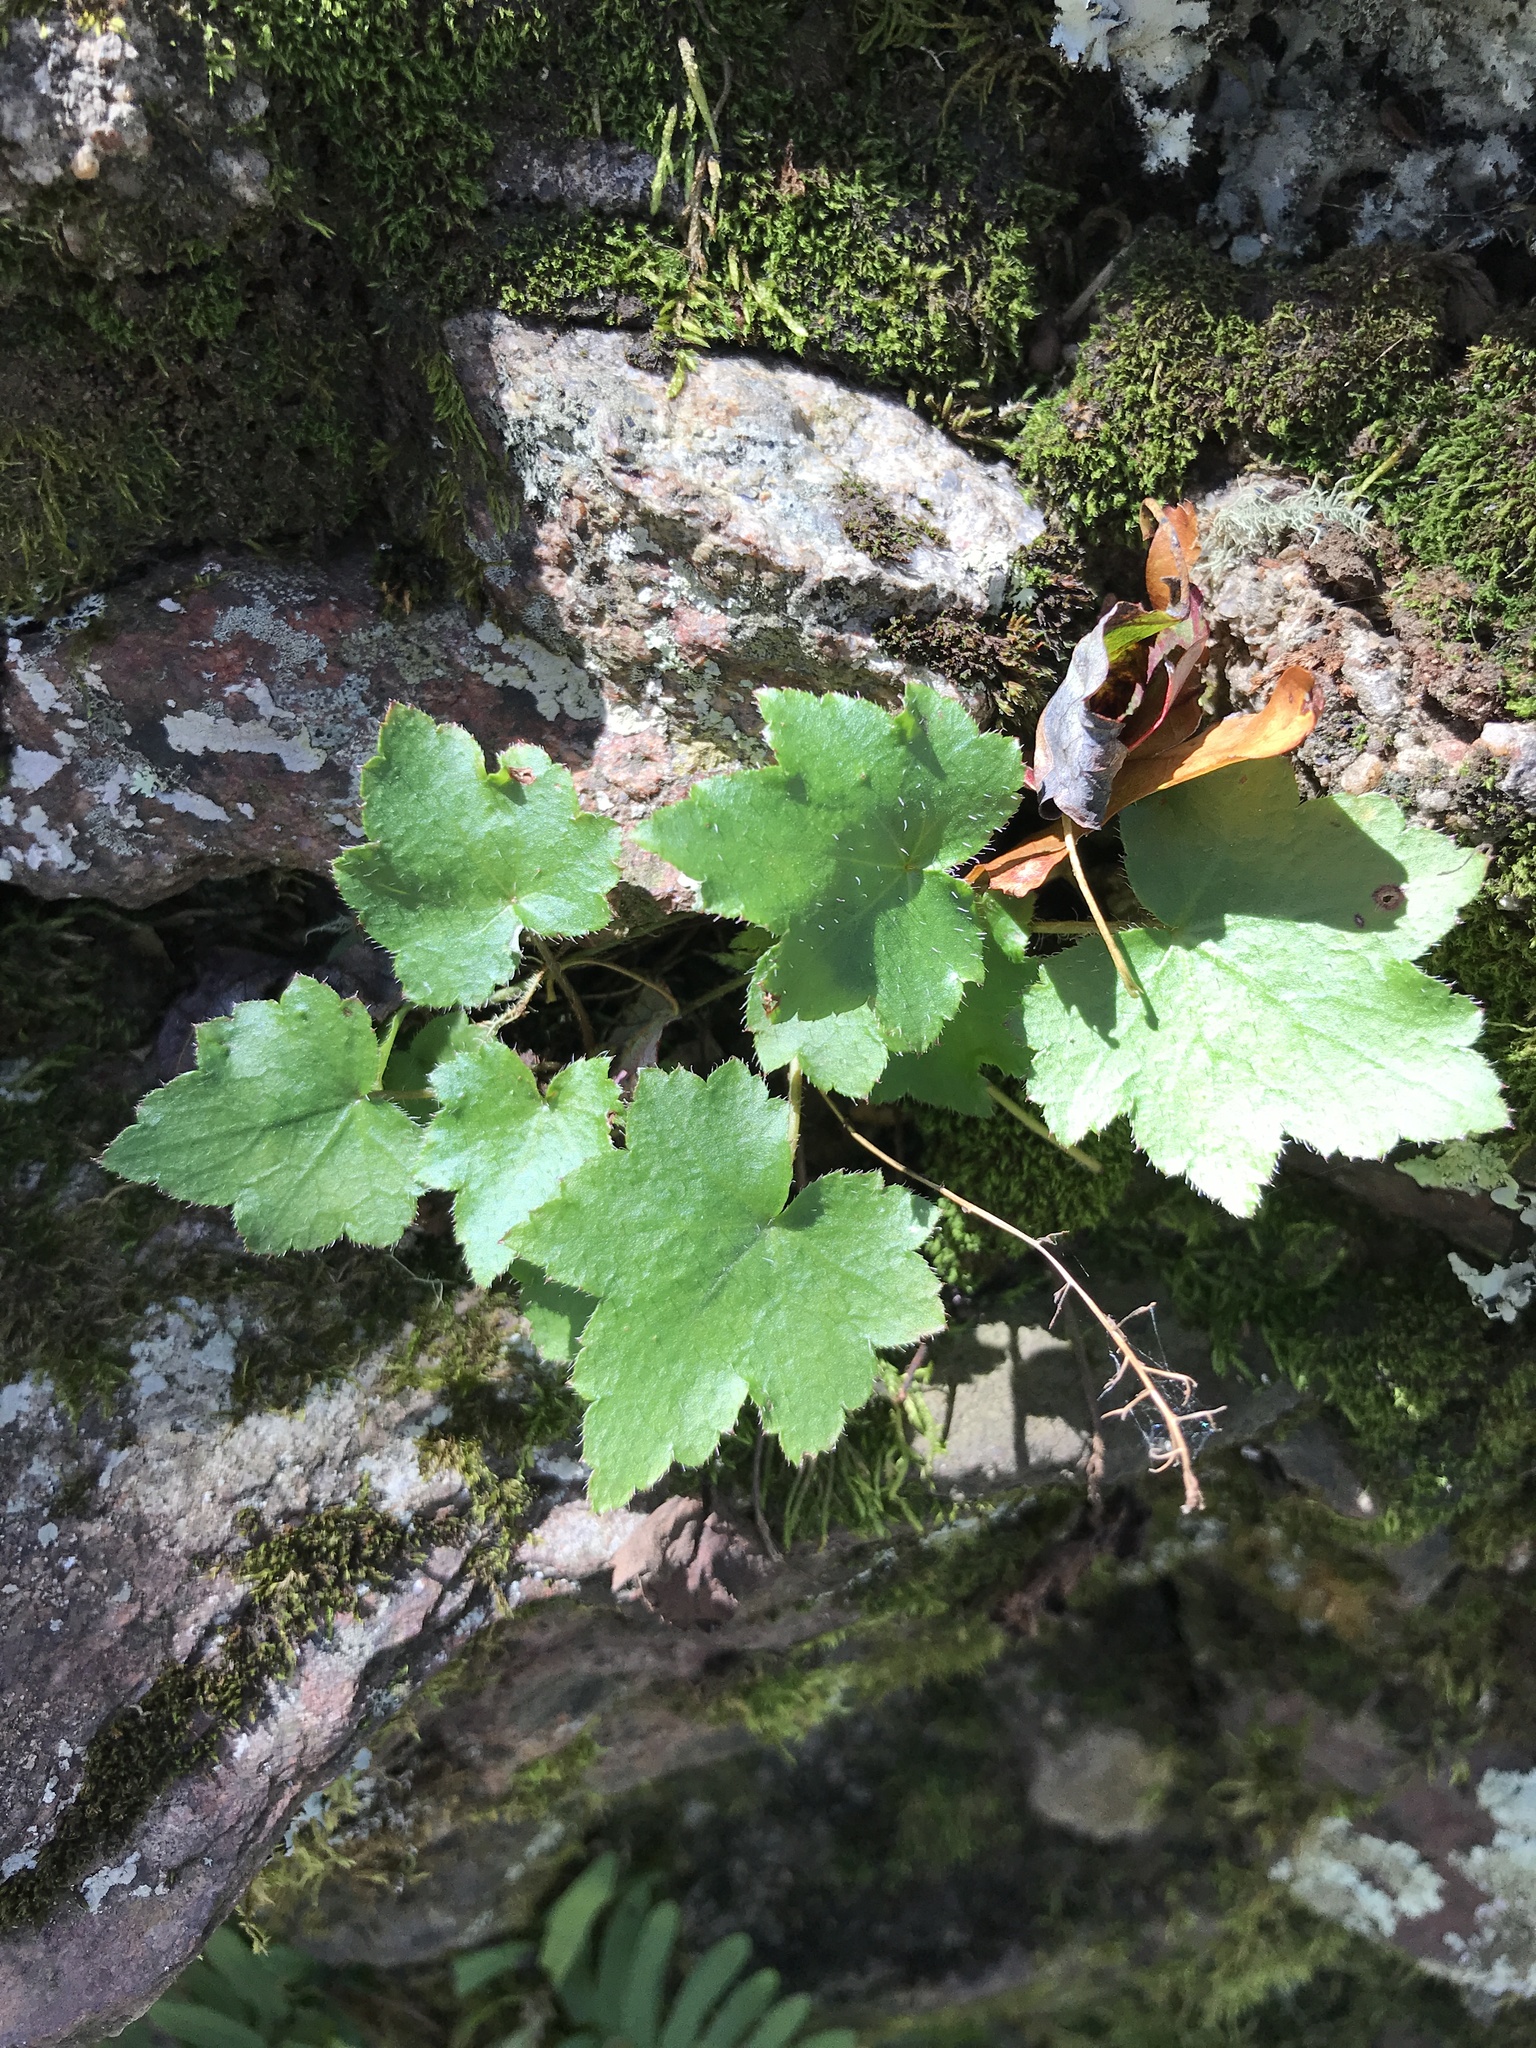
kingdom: Plantae
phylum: Tracheophyta
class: Magnoliopsida
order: Saxifragales
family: Saxifragaceae
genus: Heuchera
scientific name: Heuchera villosa
